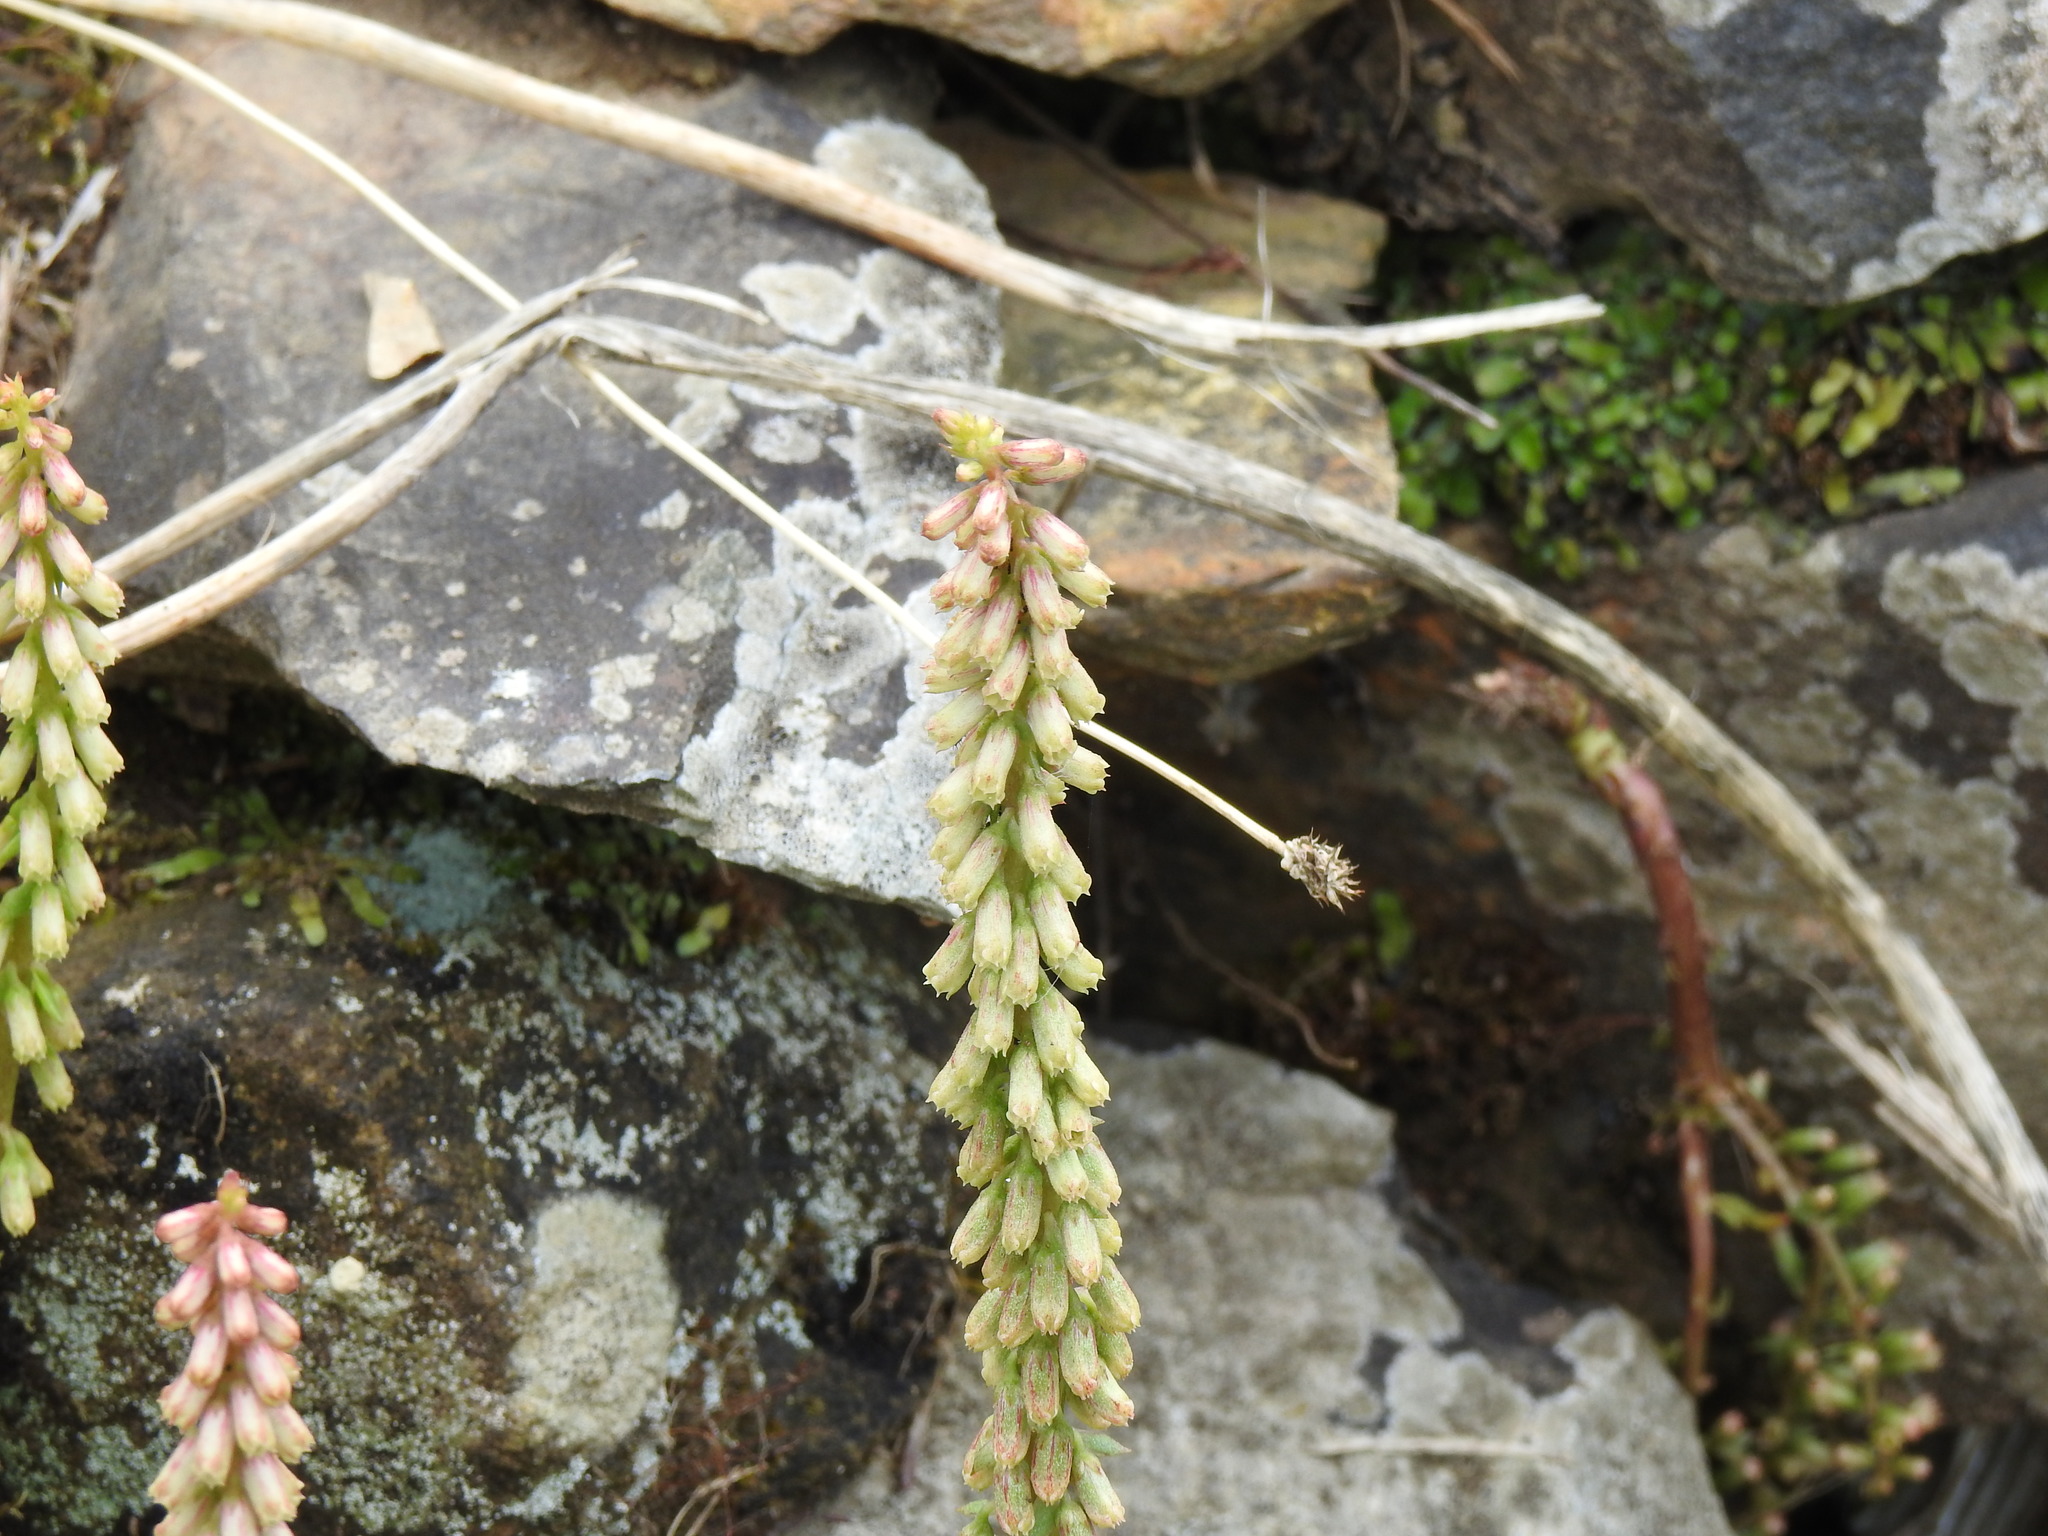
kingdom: Plantae
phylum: Tracheophyta
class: Magnoliopsida
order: Saxifragales
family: Crassulaceae
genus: Umbilicus
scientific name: Umbilicus rupestris
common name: Navelwort
